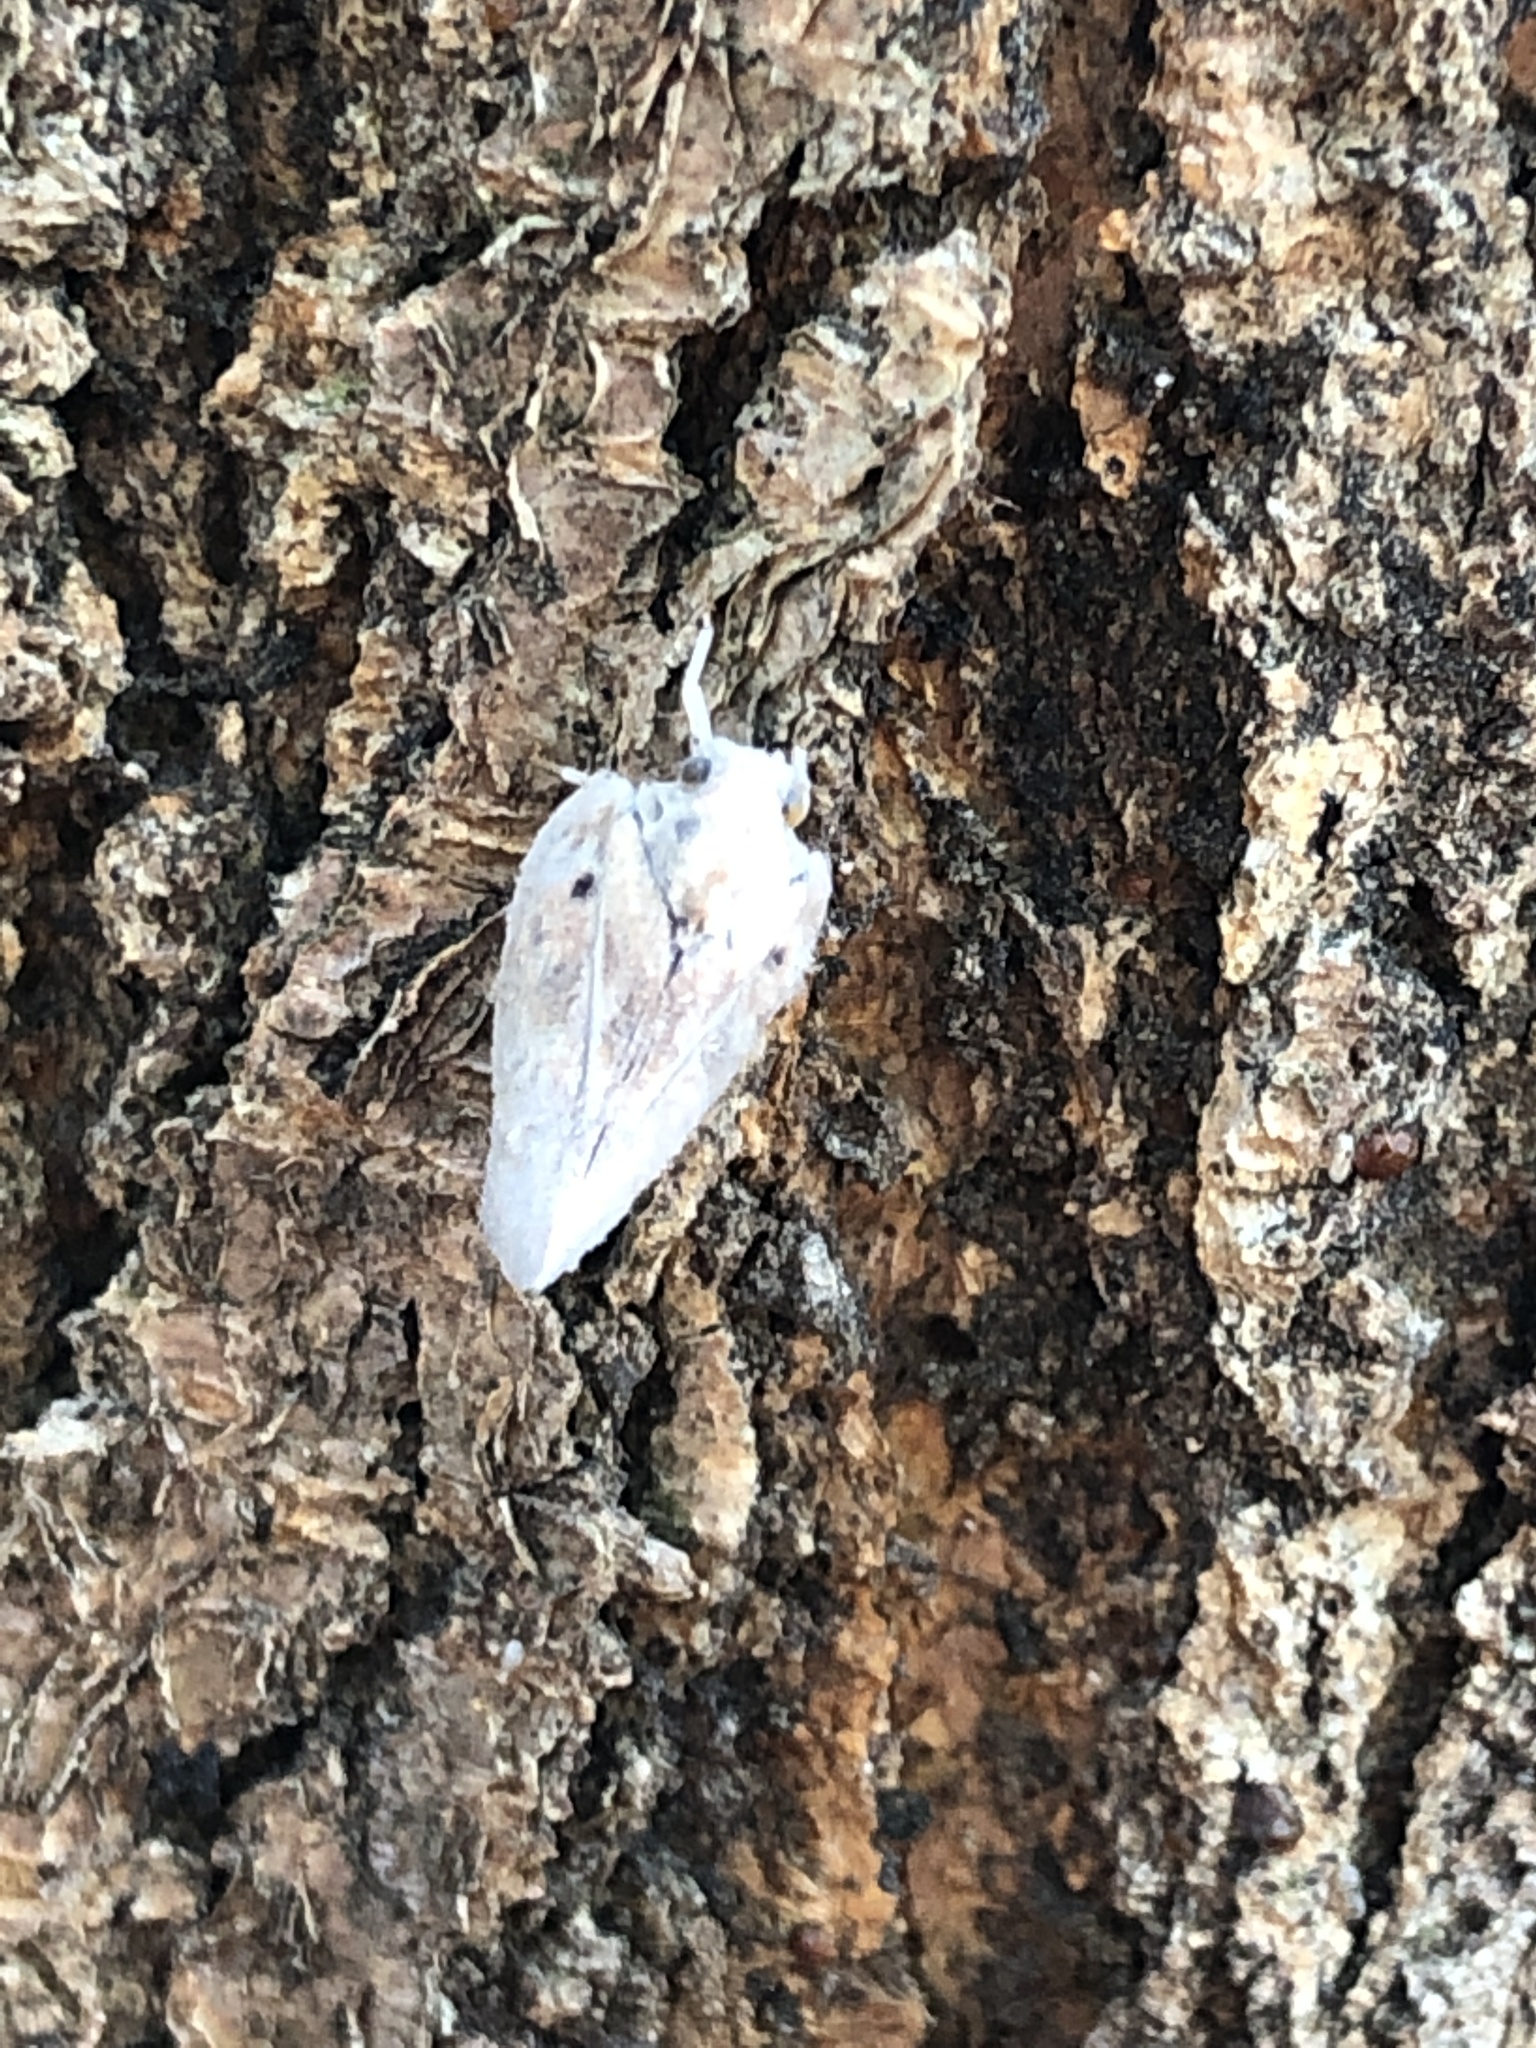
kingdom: Animalia
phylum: Arthropoda
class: Insecta
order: Hemiptera
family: Flatidae
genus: Metcalfa
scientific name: Metcalfa pruinosa
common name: Citrus flatid planthopper
